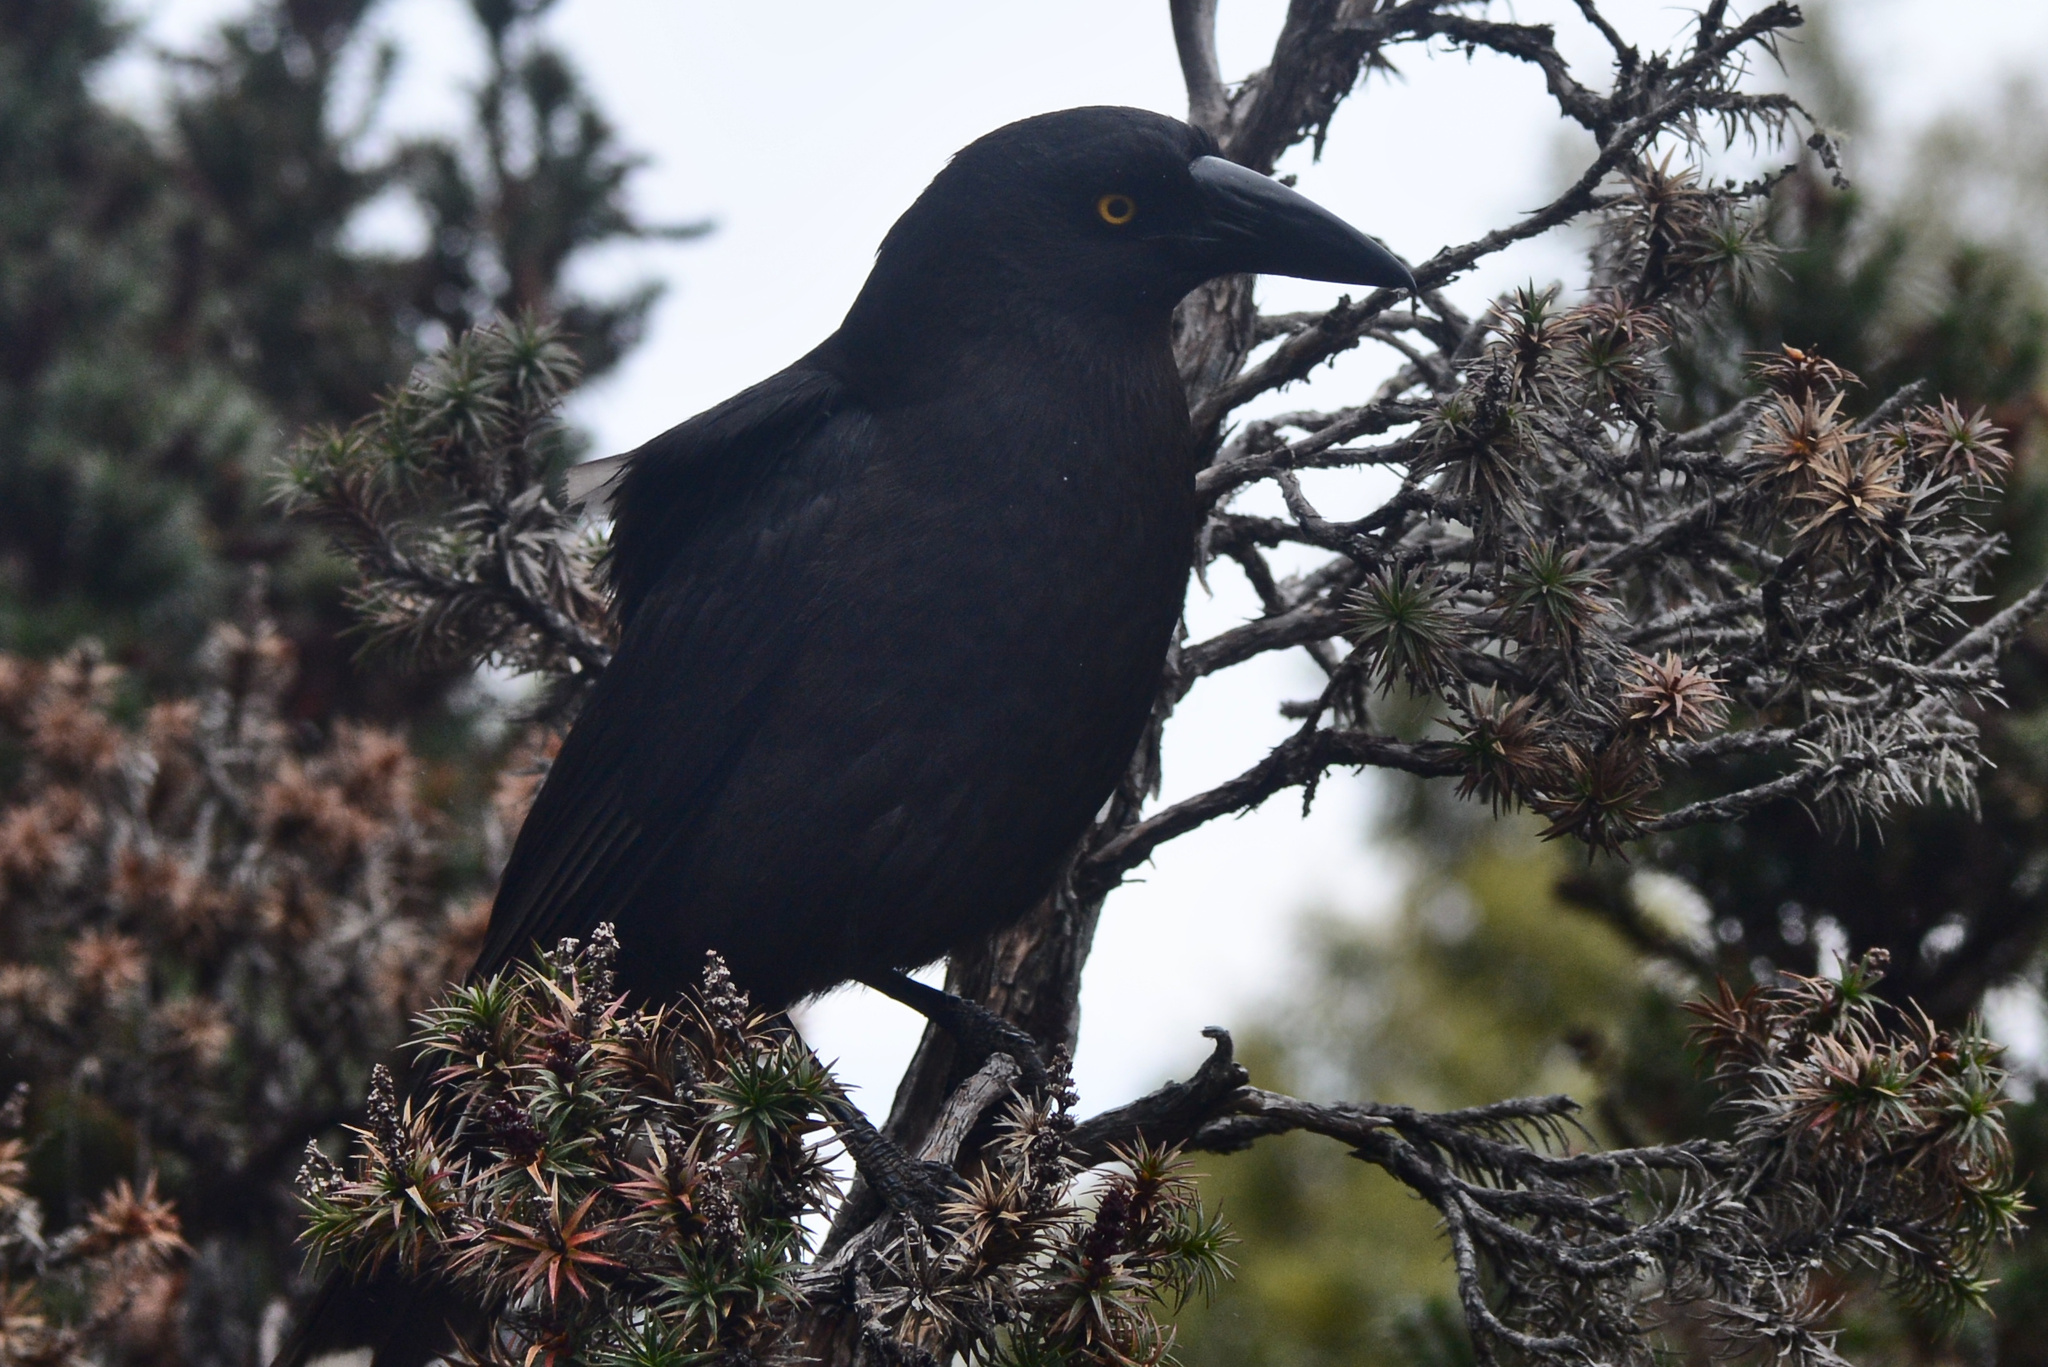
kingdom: Animalia
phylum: Chordata
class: Aves
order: Passeriformes
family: Cracticidae
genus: Strepera
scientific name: Strepera fuliginosa
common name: Black currawong
